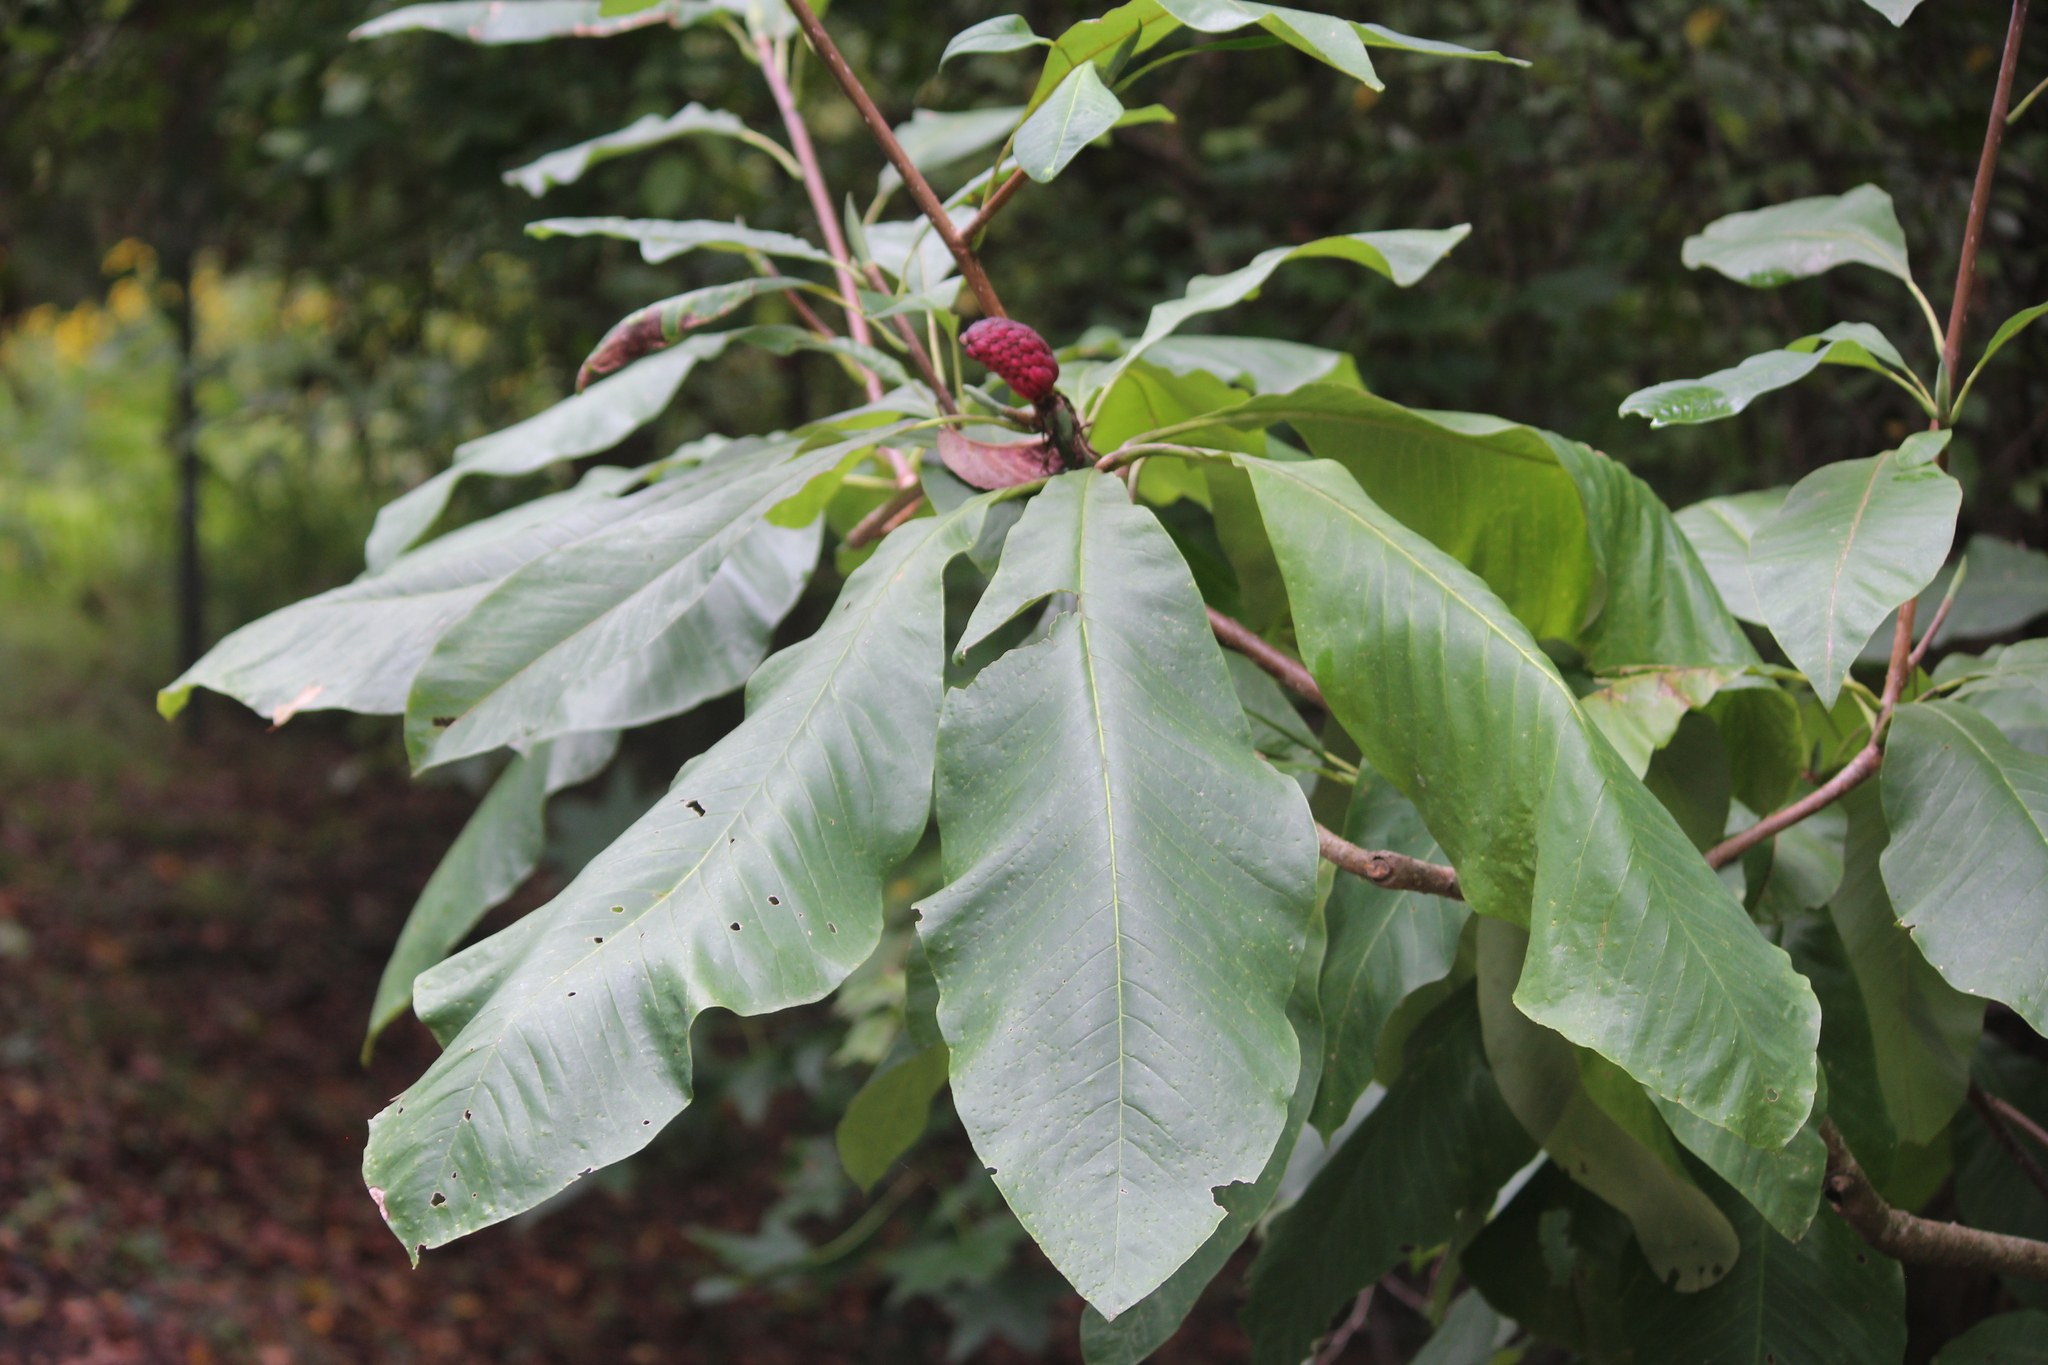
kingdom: Plantae
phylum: Tracheophyta
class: Magnoliopsida
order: Magnoliales
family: Magnoliaceae
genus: Magnolia
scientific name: Magnolia tripetala
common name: Umbrella magnolia
